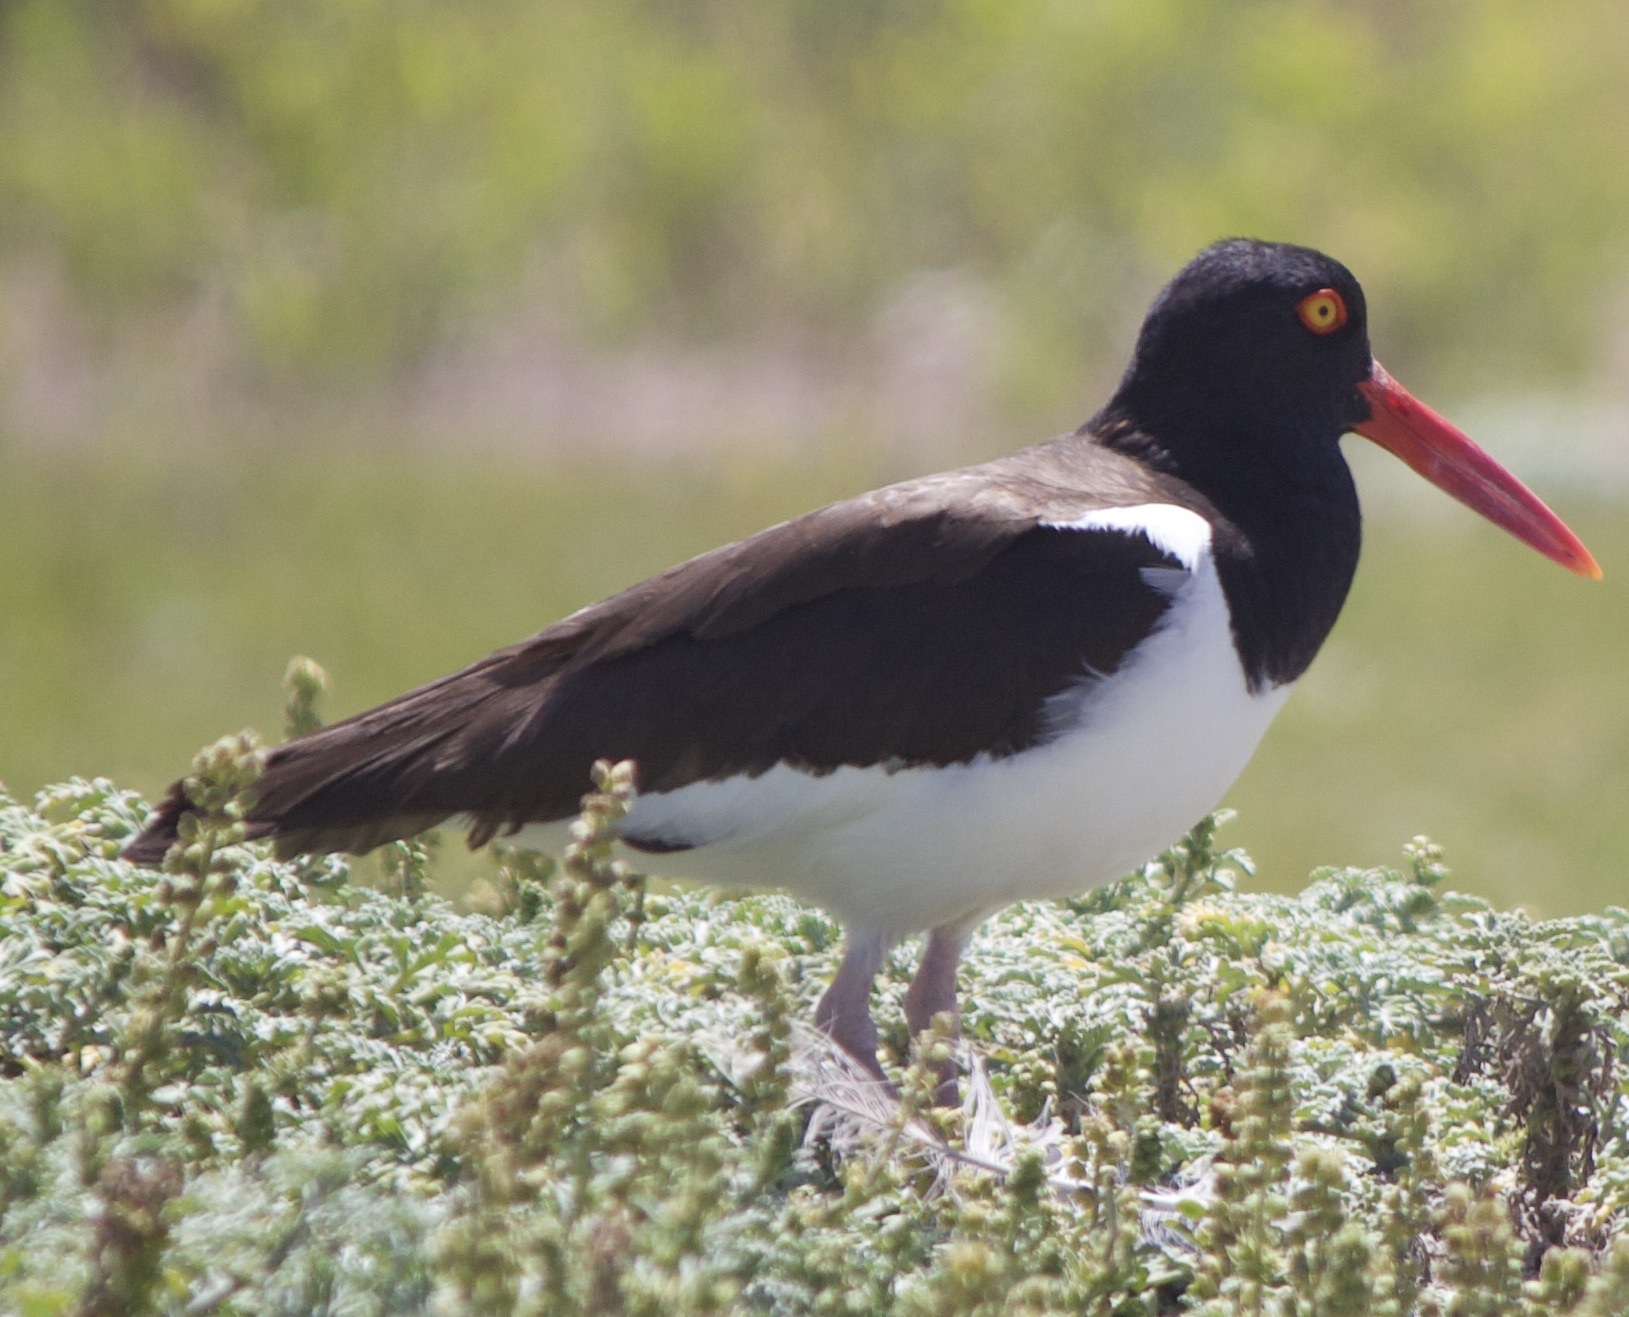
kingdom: Animalia
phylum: Chordata
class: Aves
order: Charadriiformes
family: Haematopodidae
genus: Haematopus
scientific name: Haematopus palliatus
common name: American oystercatcher
